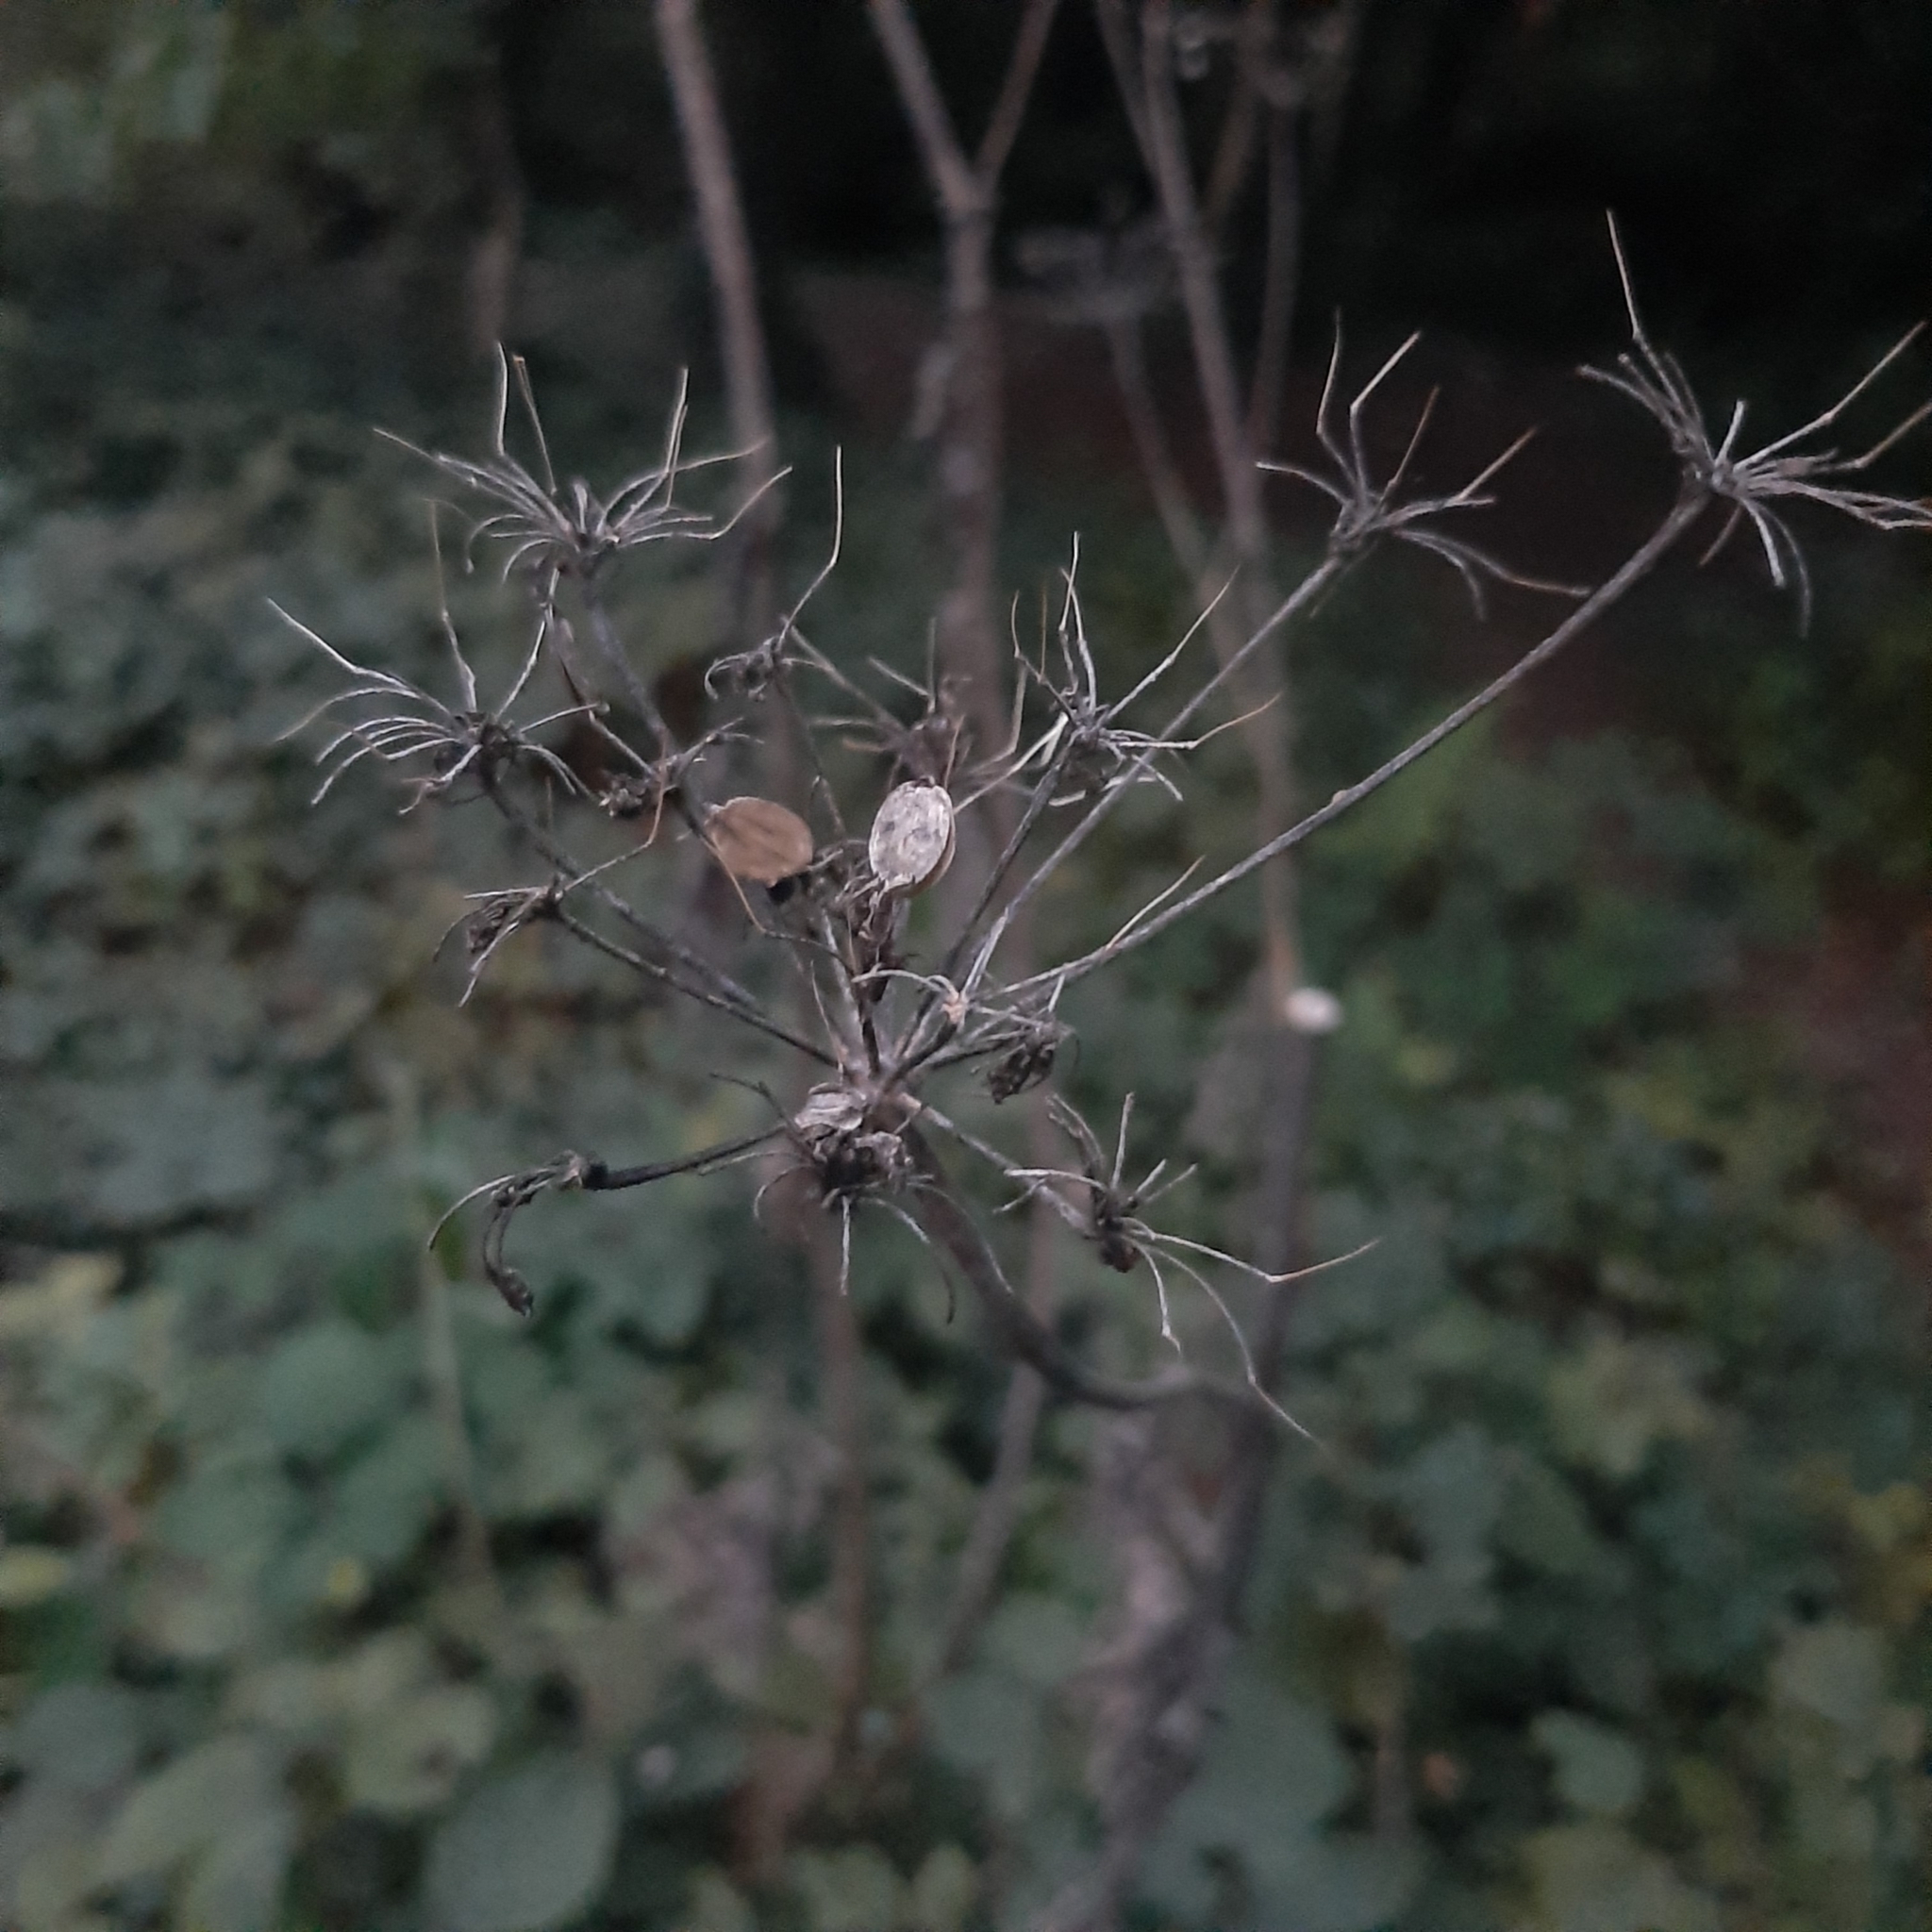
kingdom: Plantae
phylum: Tracheophyta
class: Magnoliopsida
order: Apiales
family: Apiaceae
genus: Heracleum
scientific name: Heracleum sphondylium
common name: Hogweed
